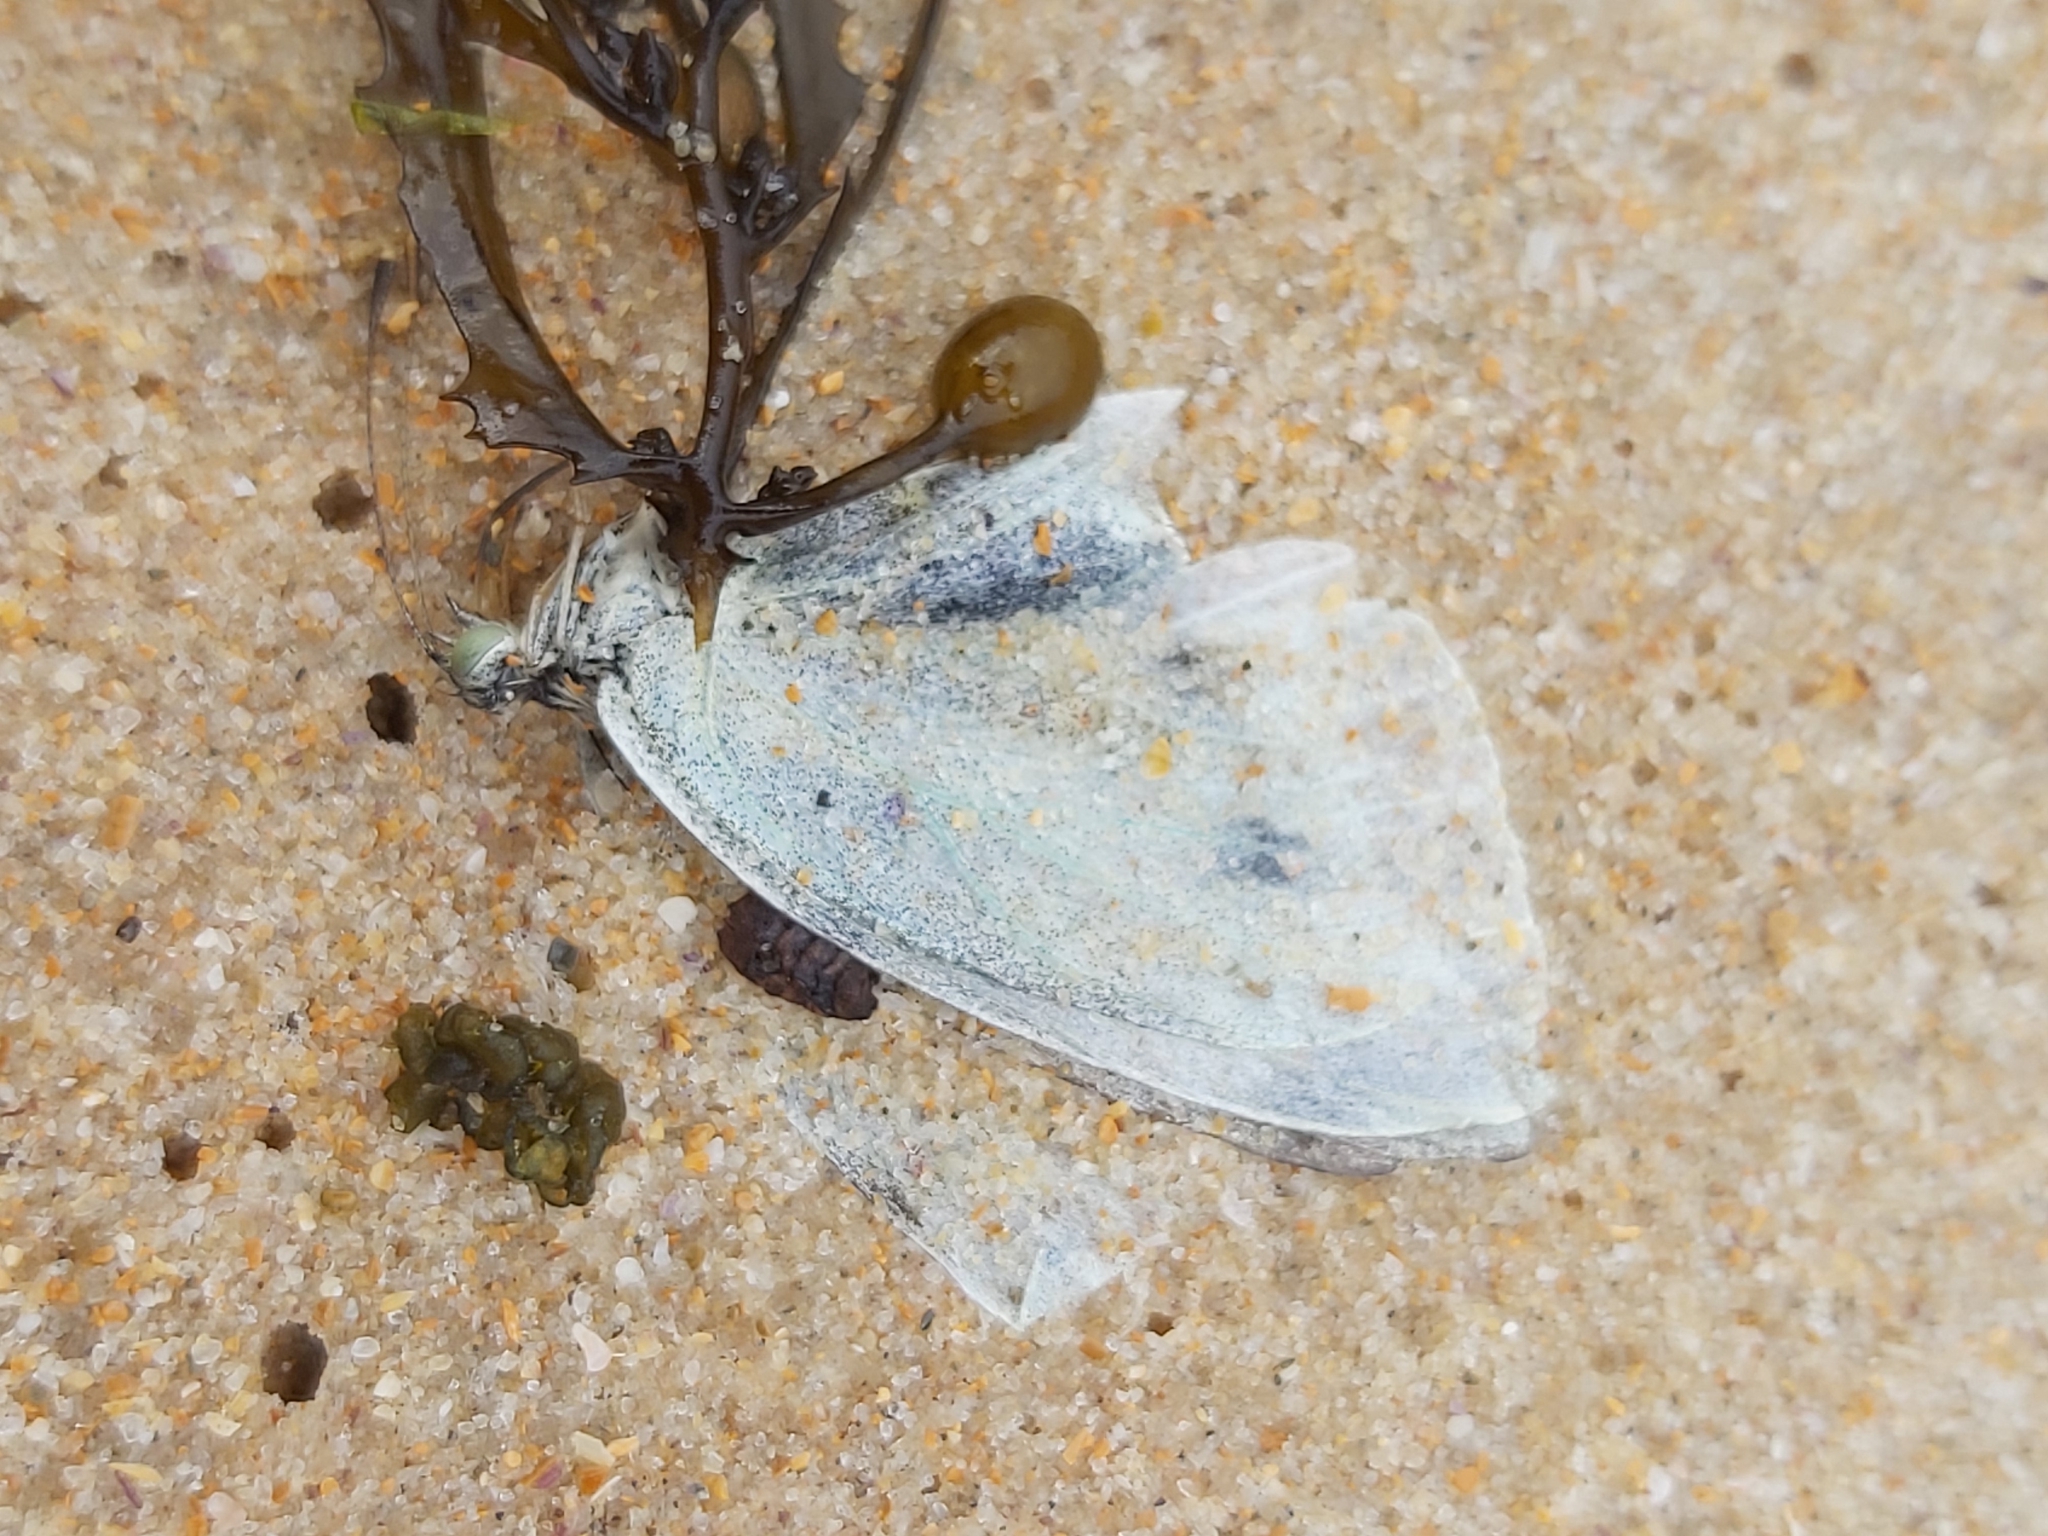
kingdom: Animalia
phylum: Arthropoda
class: Insecta
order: Lepidoptera
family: Pieridae
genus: Pieris
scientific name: Pieris rapae
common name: Small white
